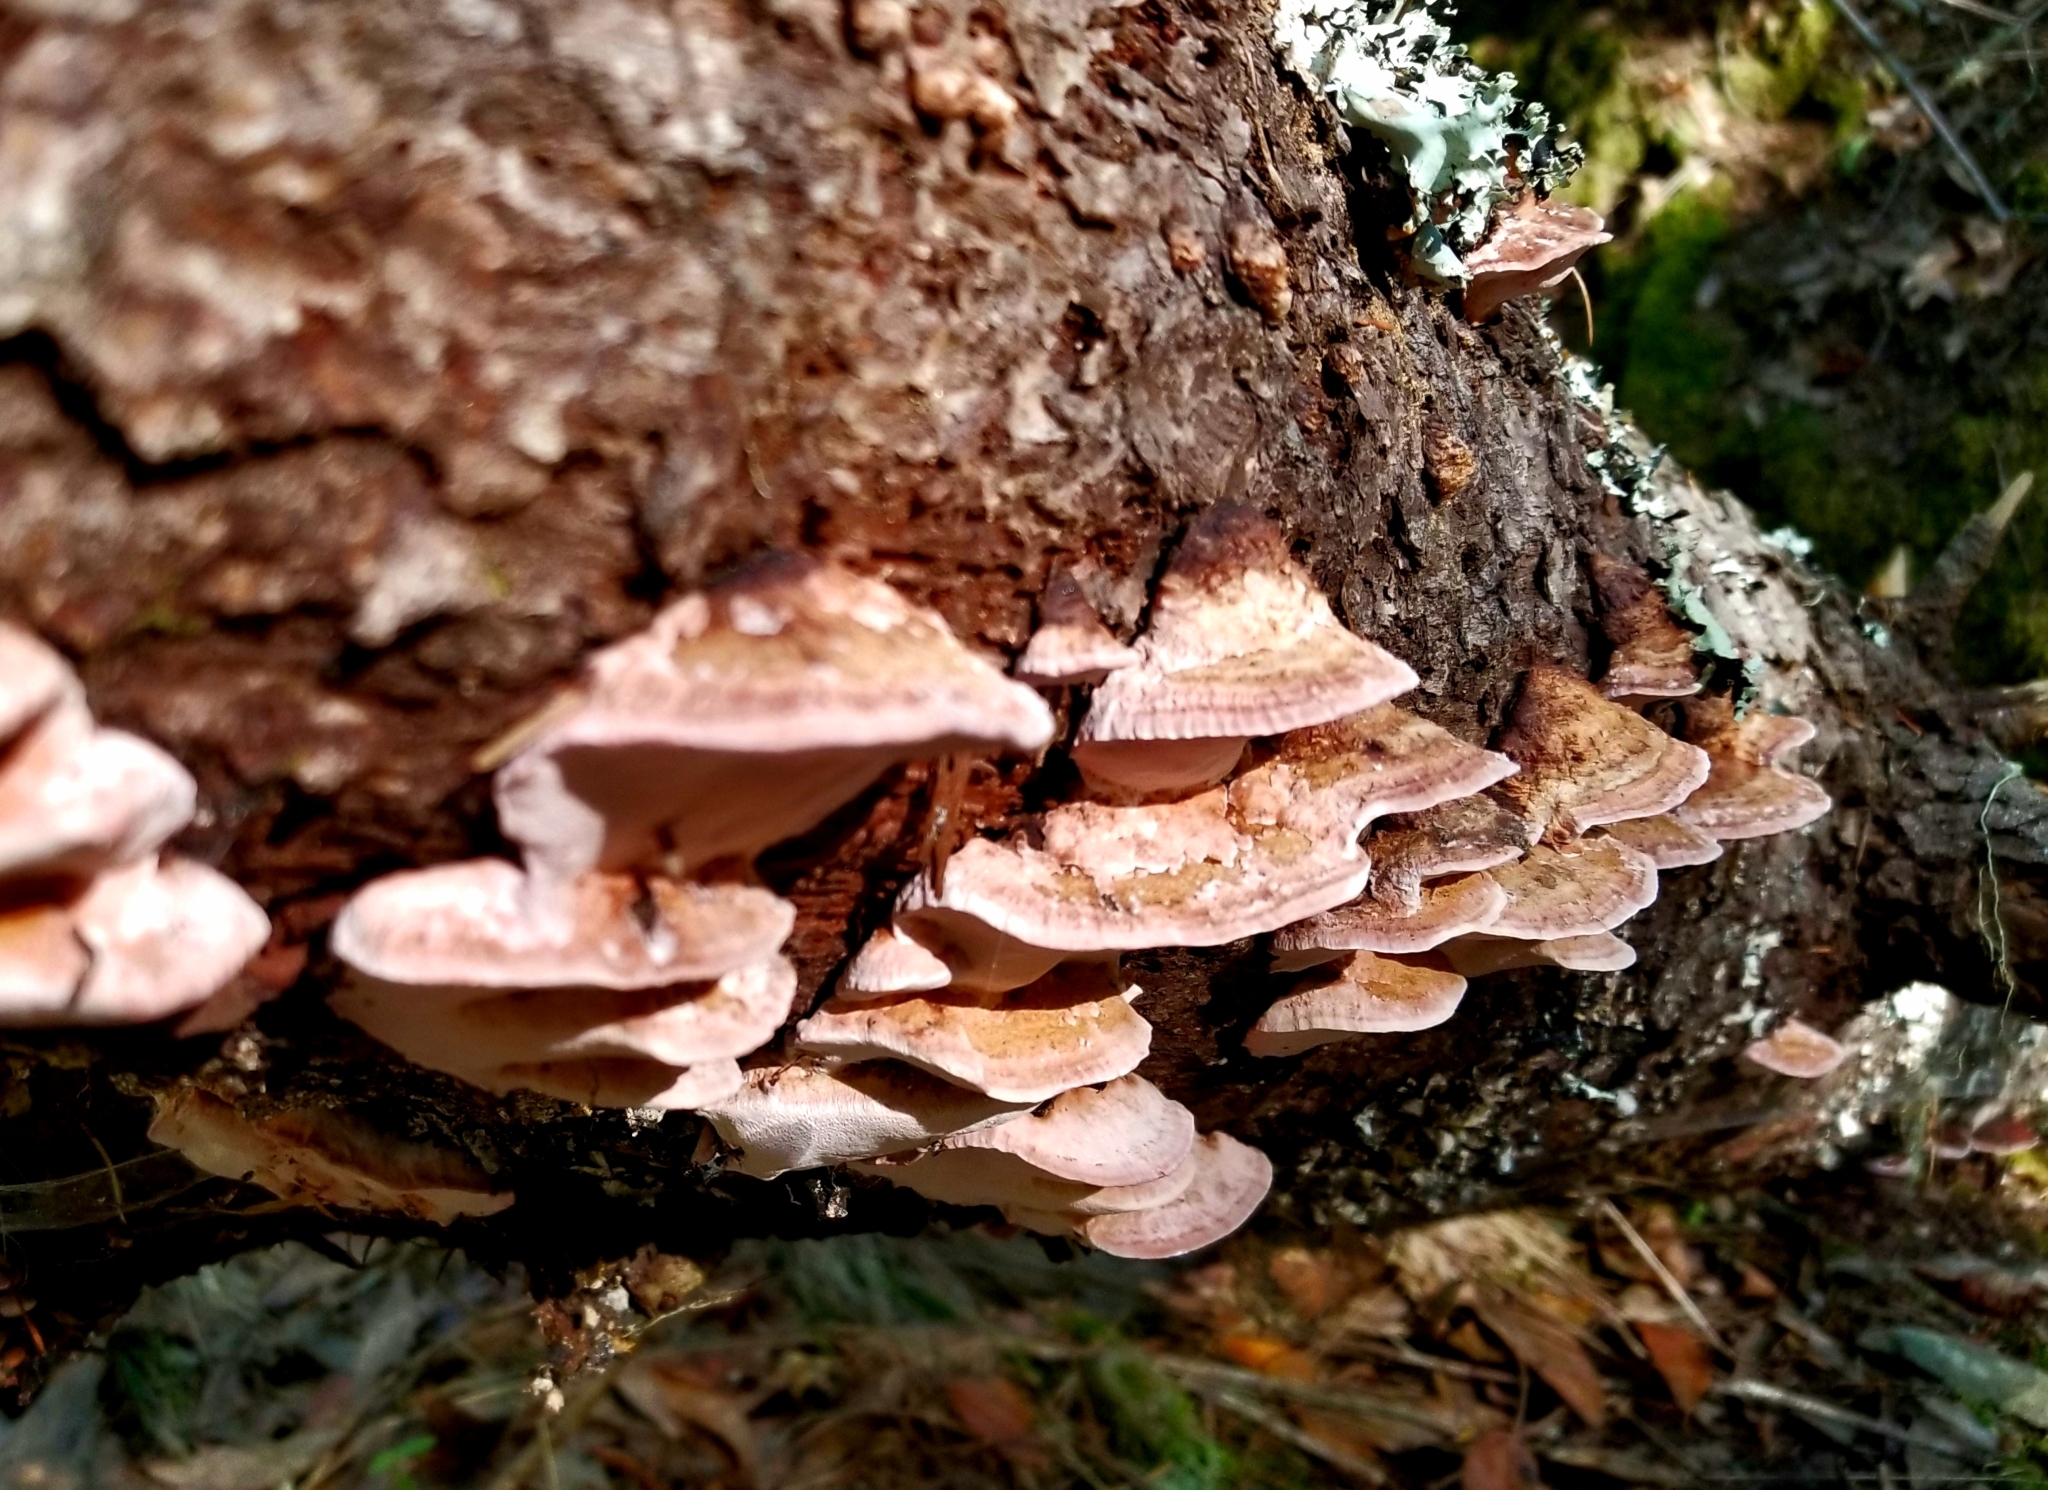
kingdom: Fungi
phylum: Basidiomycota
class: Agaricomycetes
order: Polyporales
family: Fomitopsidaceae
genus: Rhodofomes
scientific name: Rhodofomes cajanderi
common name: Rosy conk
